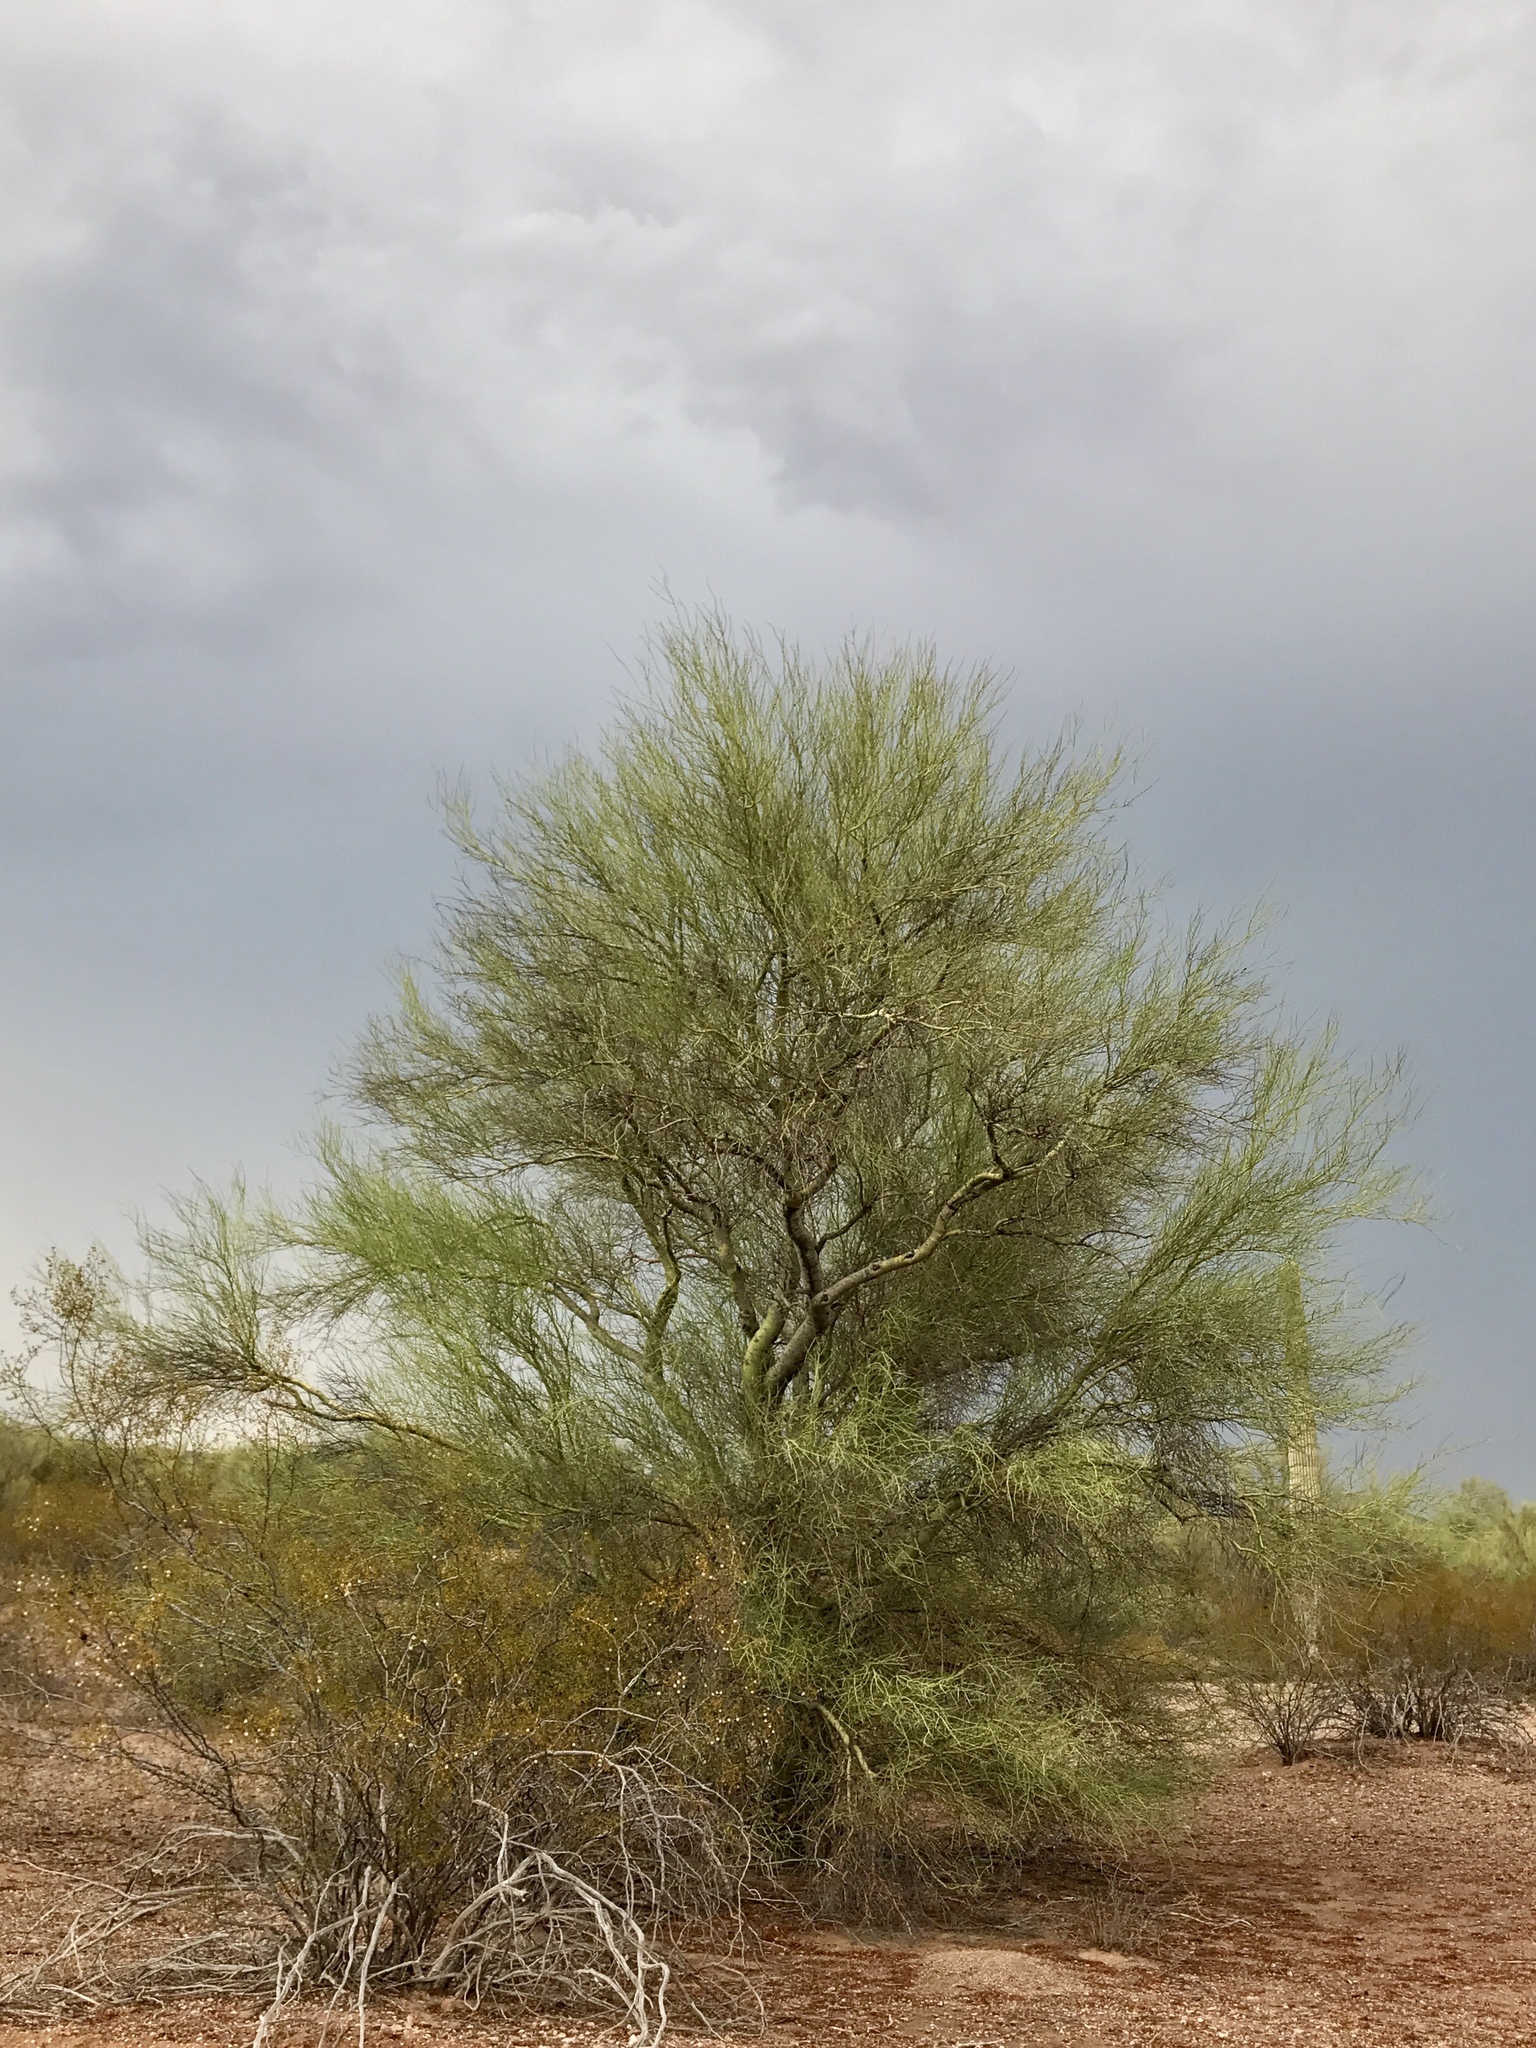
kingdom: Plantae
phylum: Tracheophyta
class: Magnoliopsida
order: Fabales
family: Fabaceae
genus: Parkinsonia
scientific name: Parkinsonia florida
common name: Blue paloverde
